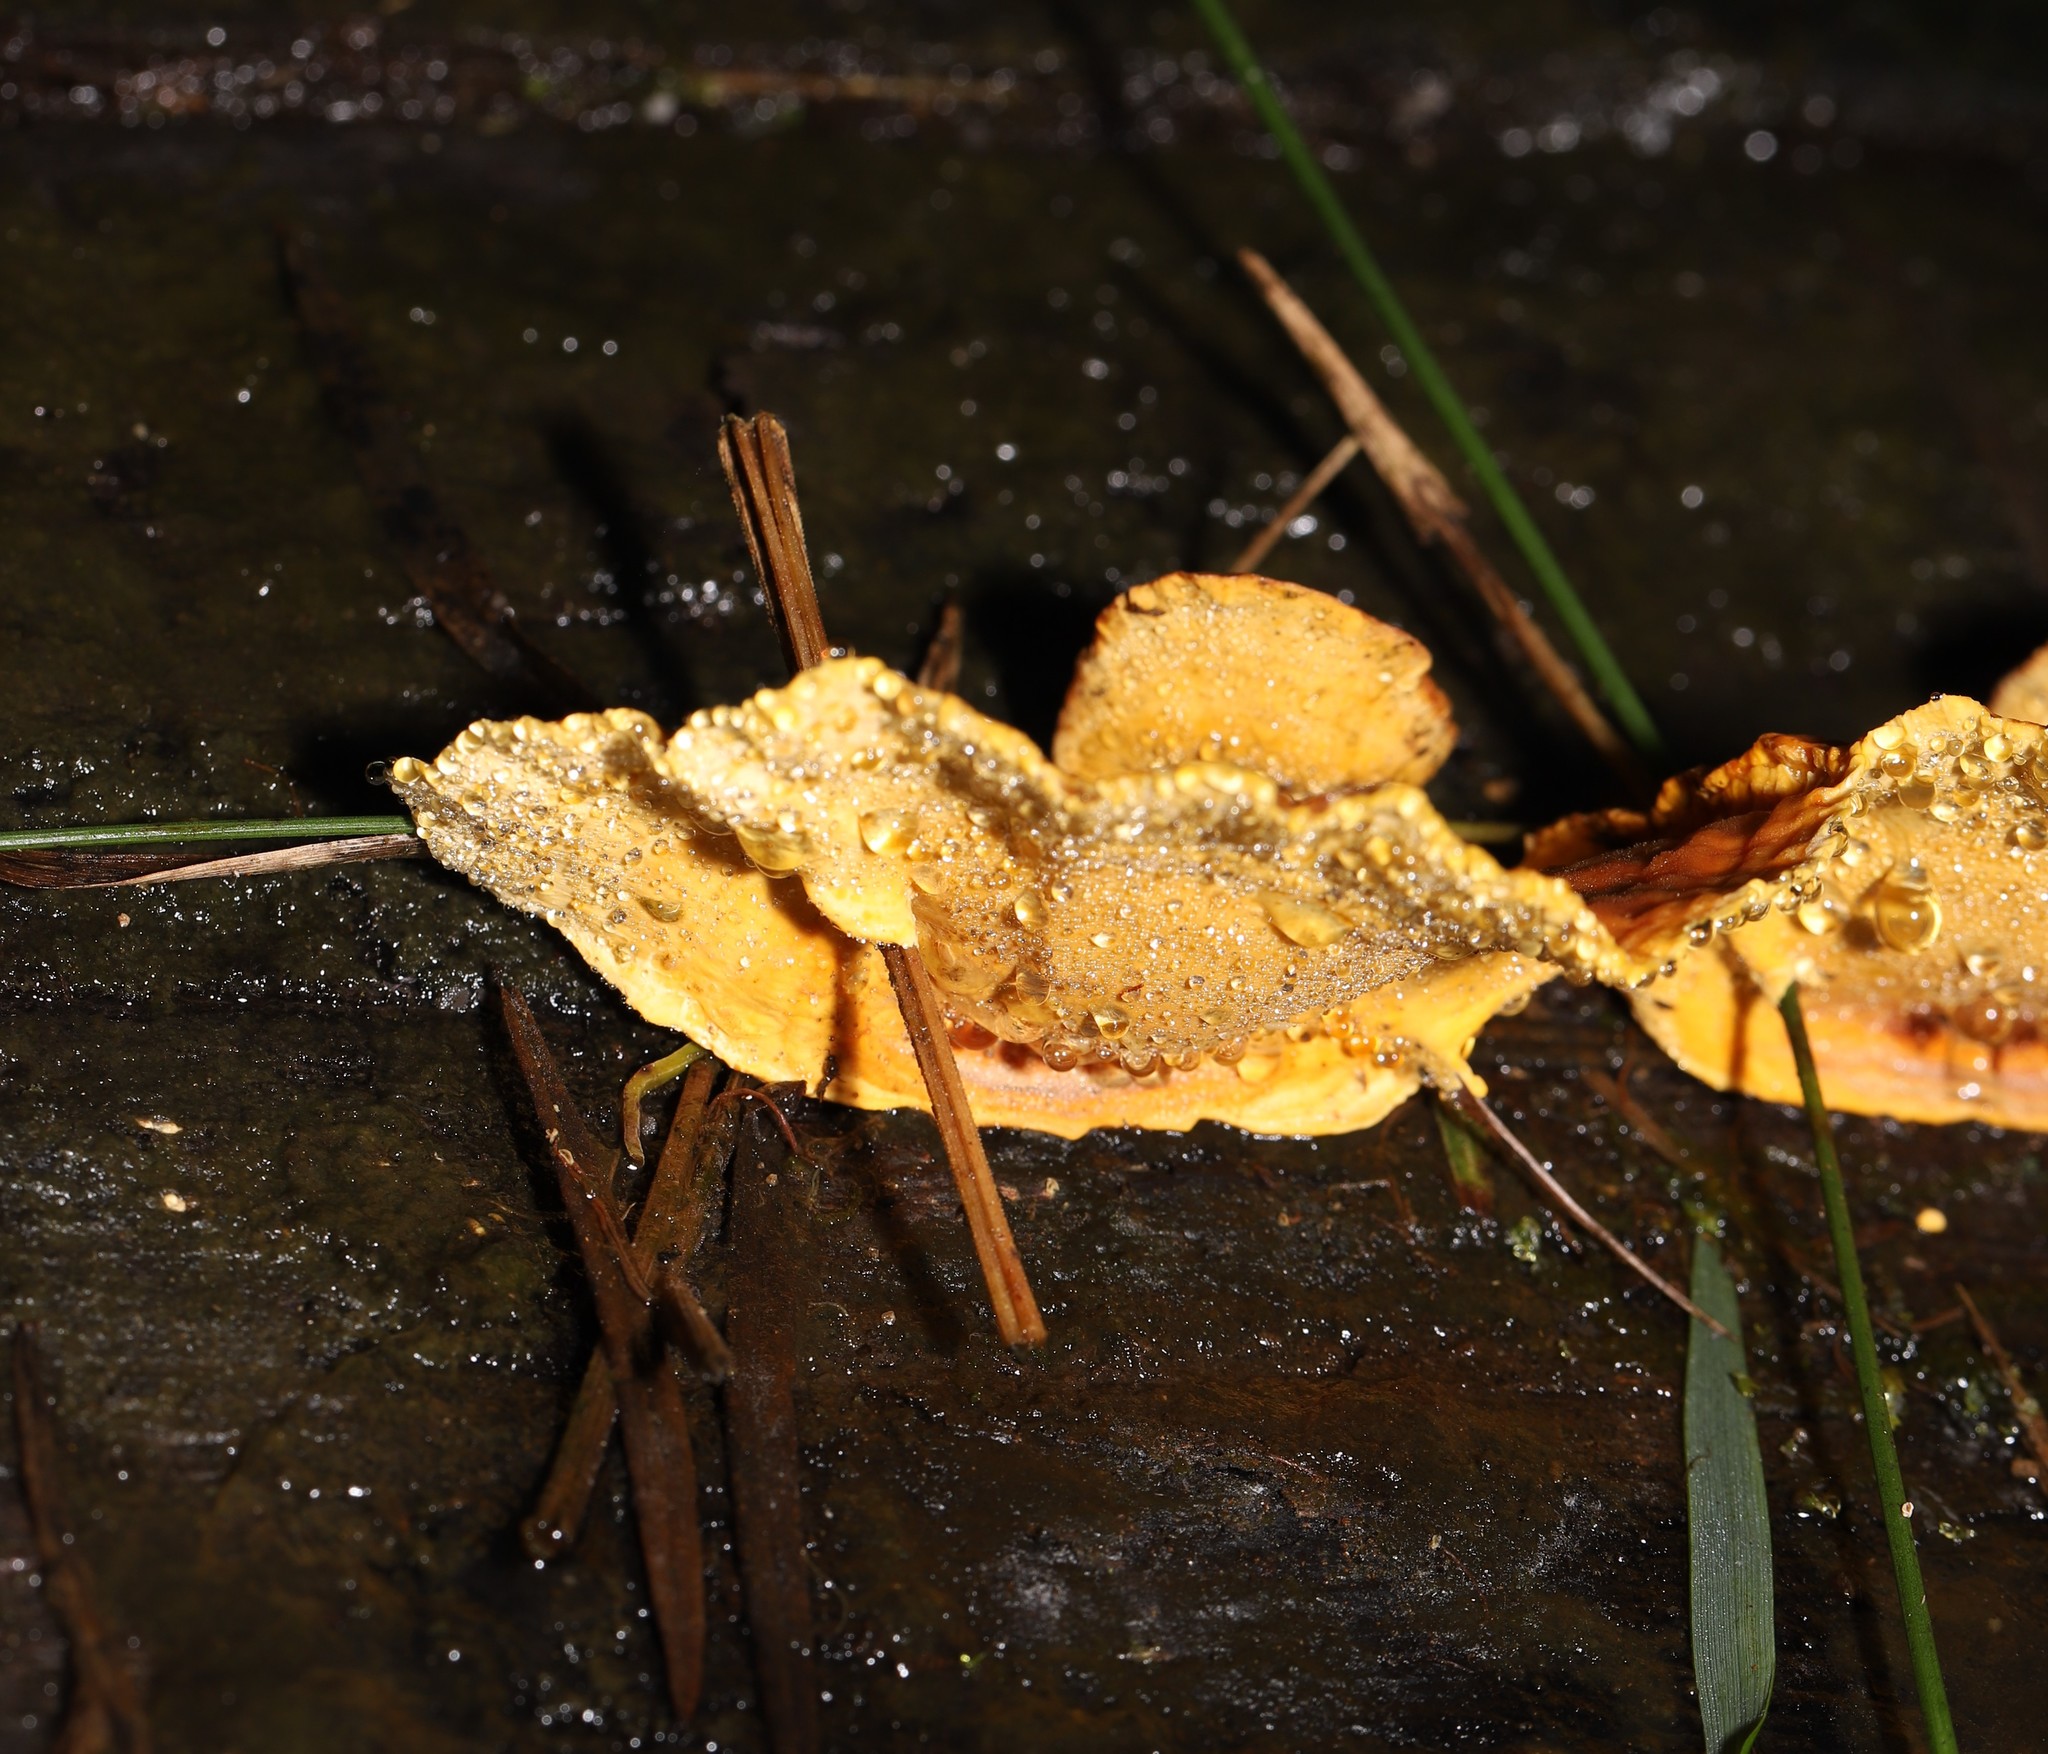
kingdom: Fungi
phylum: Basidiomycota
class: Agaricomycetes
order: Russulales
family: Stereaceae
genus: Stereum
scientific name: Stereum versicolor
